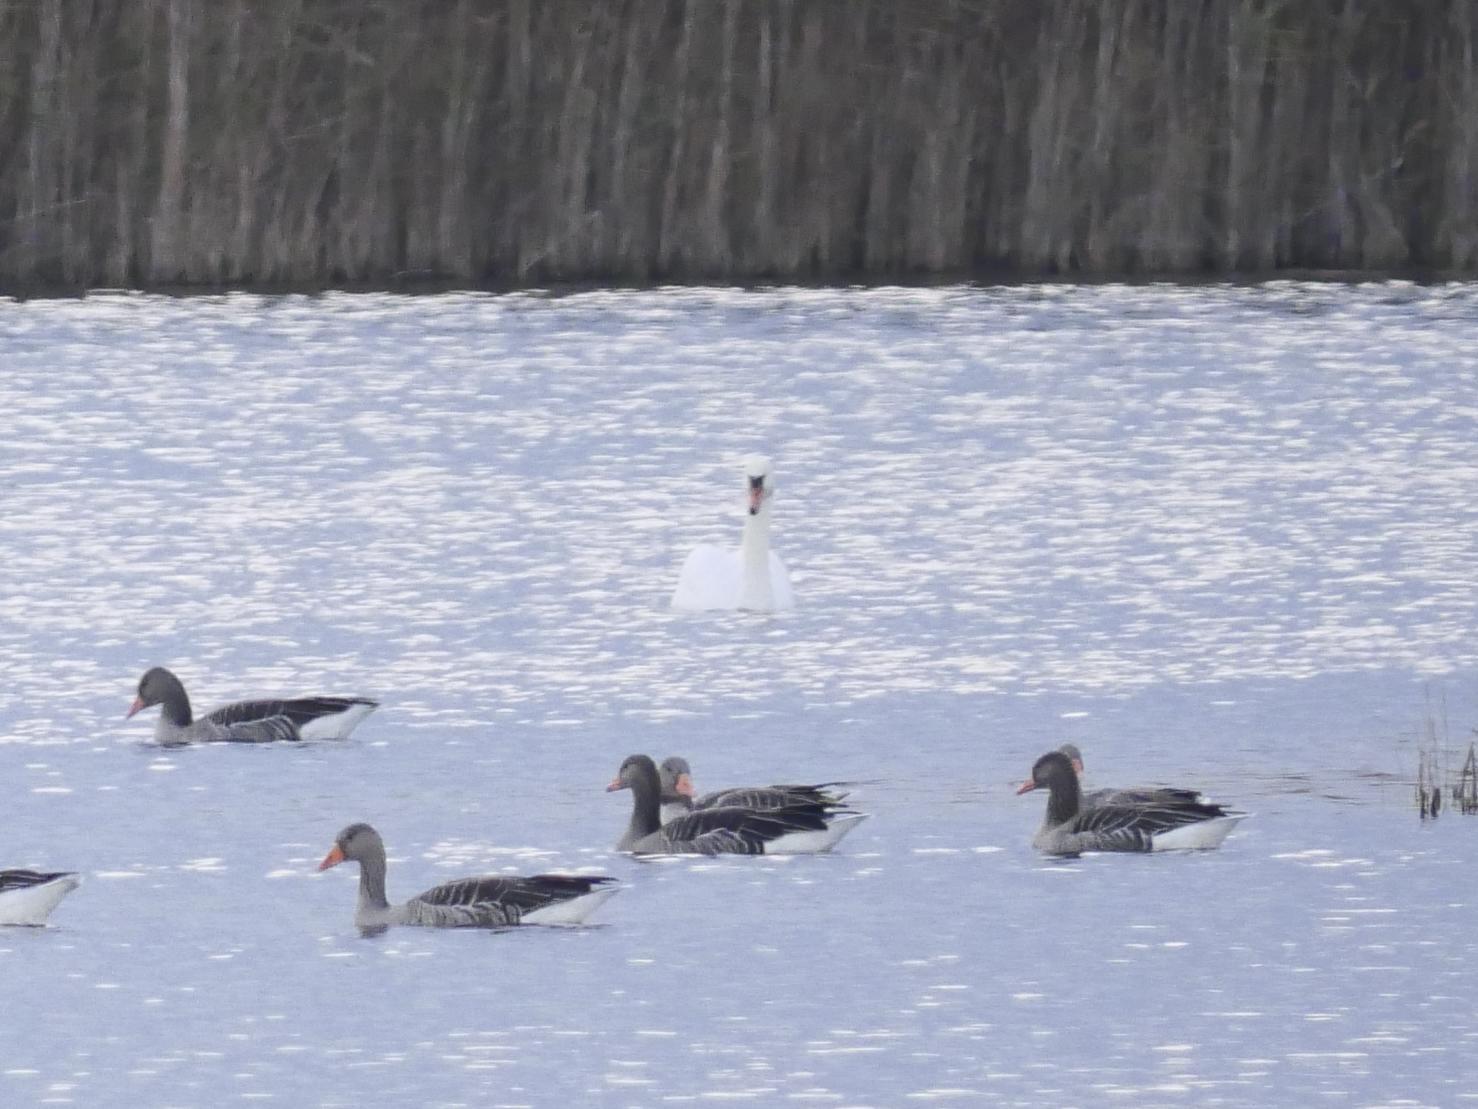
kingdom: Animalia
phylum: Chordata
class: Aves
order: Anseriformes
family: Anatidae
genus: Anser
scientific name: Anser anser
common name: Greylag goose
